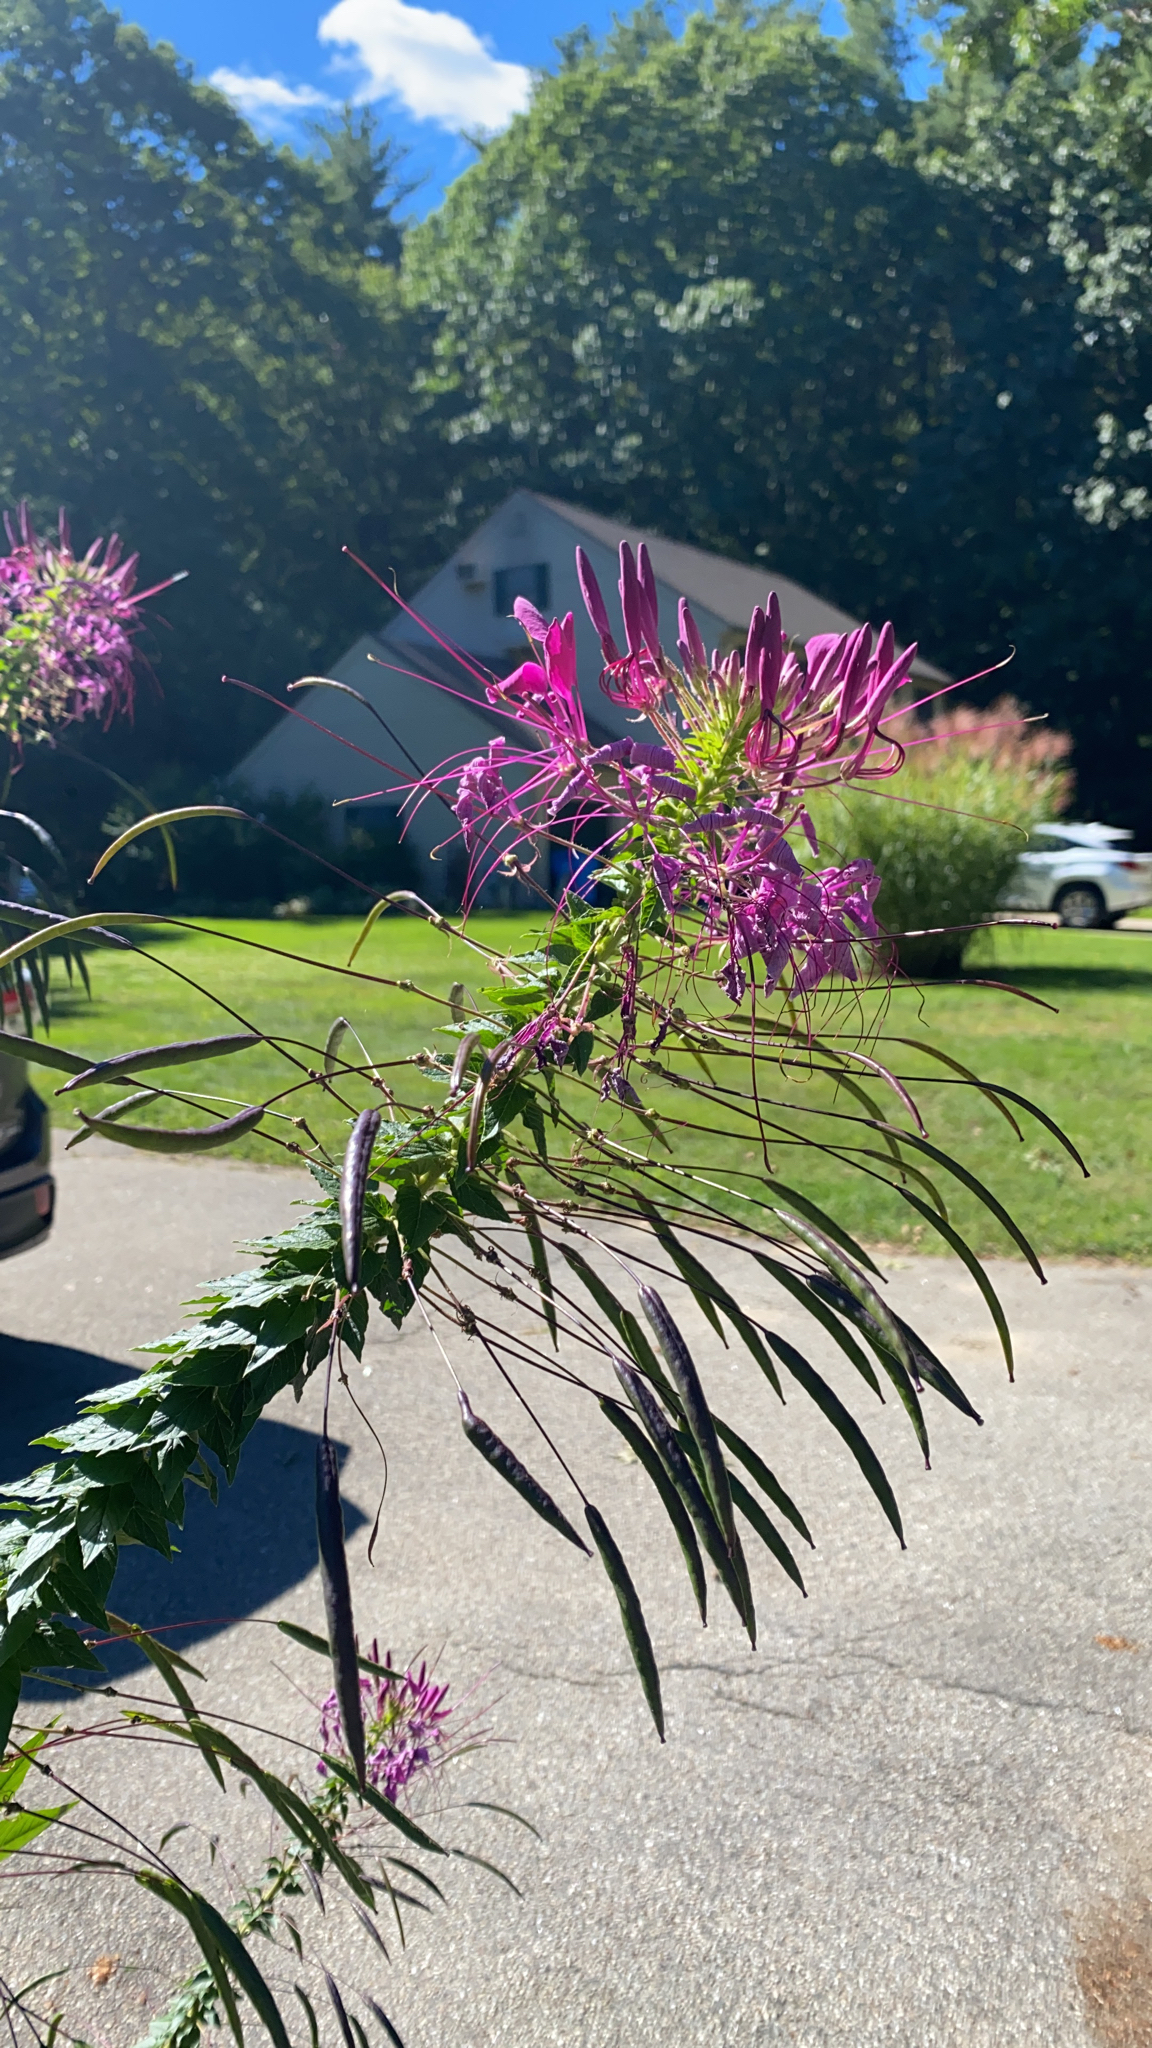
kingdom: Plantae
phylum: Tracheophyta
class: Magnoliopsida
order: Brassicales
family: Cleomaceae
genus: Tarenaya
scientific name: Tarenaya houtteana
